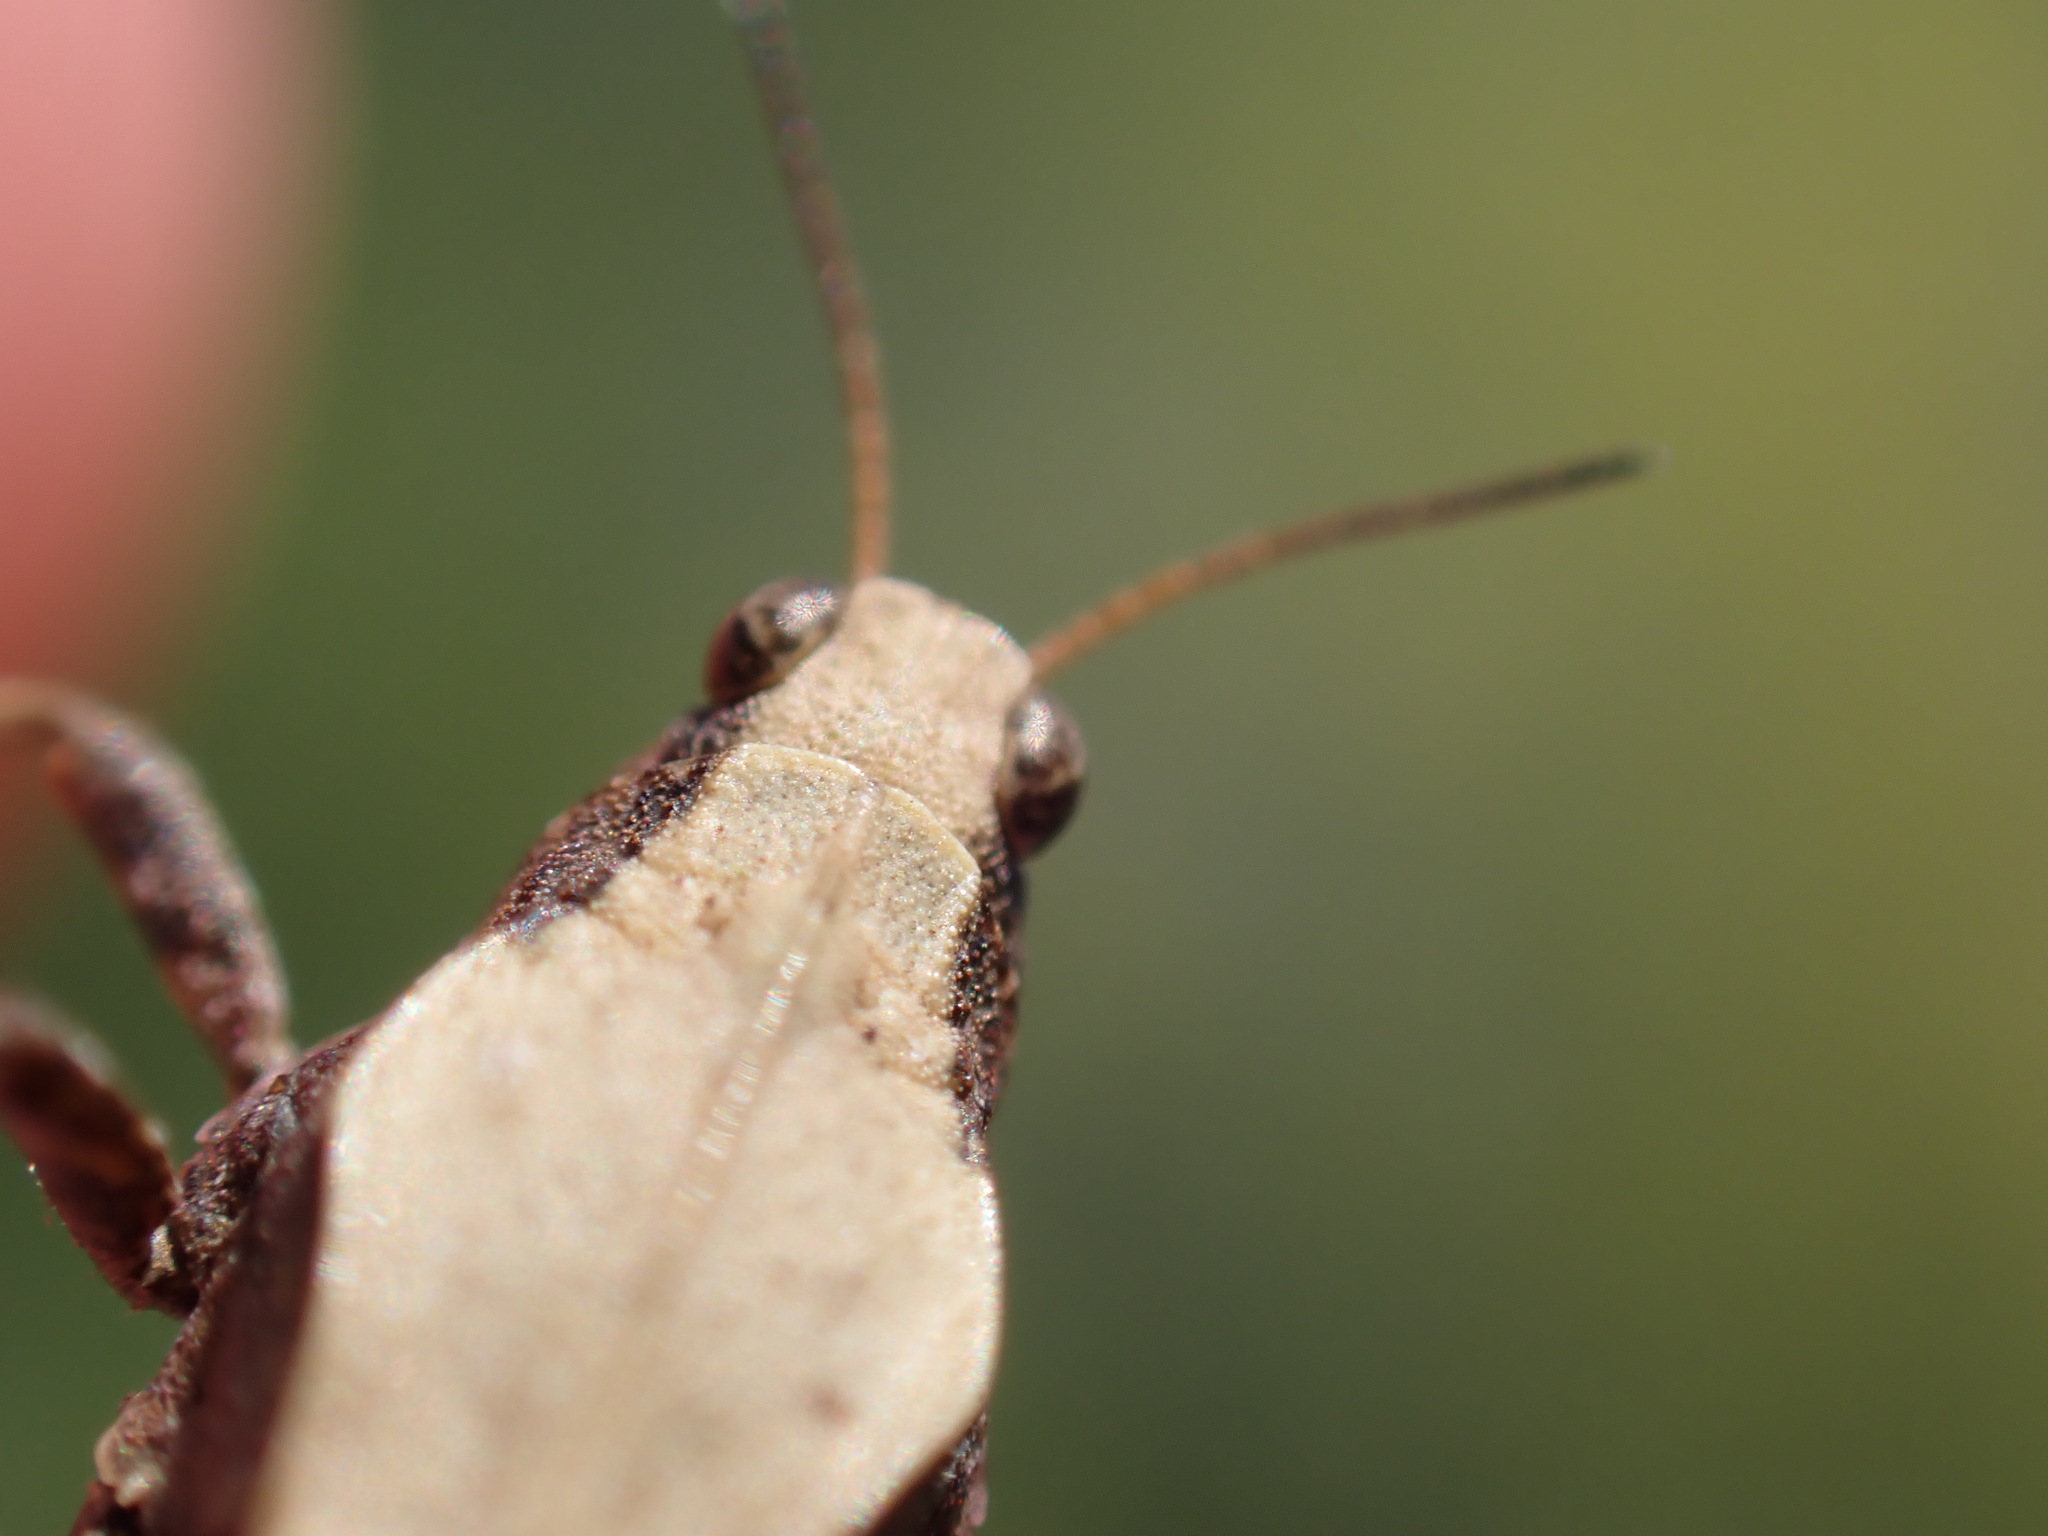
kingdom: Animalia
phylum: Arthropoda
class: Insecta
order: Orthoptera
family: Tetrigidae
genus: Tetrix
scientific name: Tetrix subulata
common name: Slender ground-hopper
